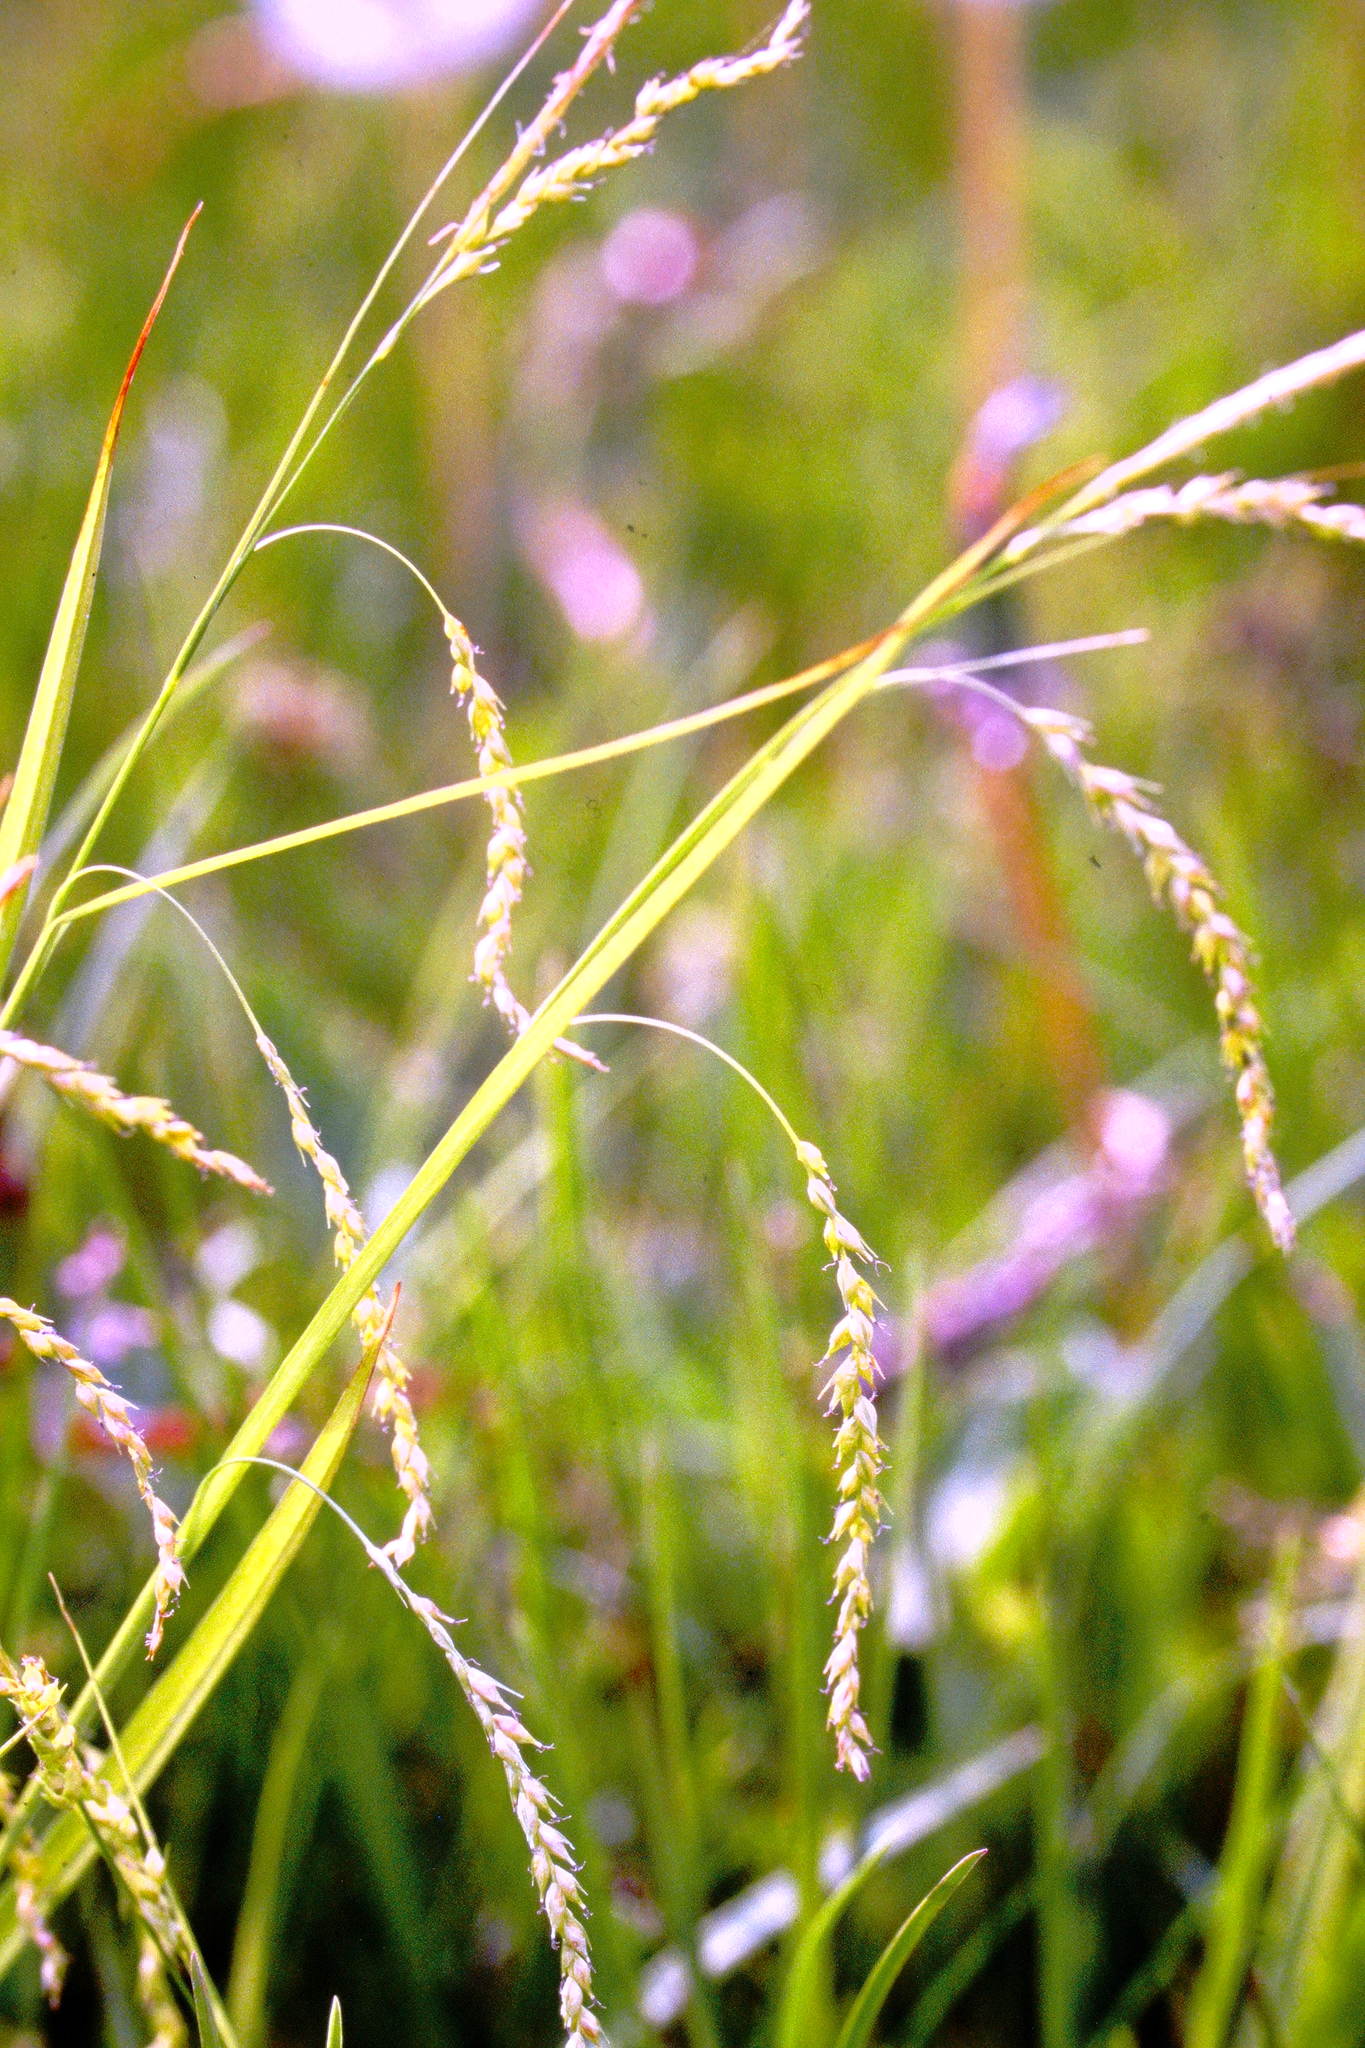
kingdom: Plantae
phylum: Tracheophyta
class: Liliopsida
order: Poales
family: Cyperaceae
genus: Carex
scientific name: Carex arctata
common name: Black sedge
